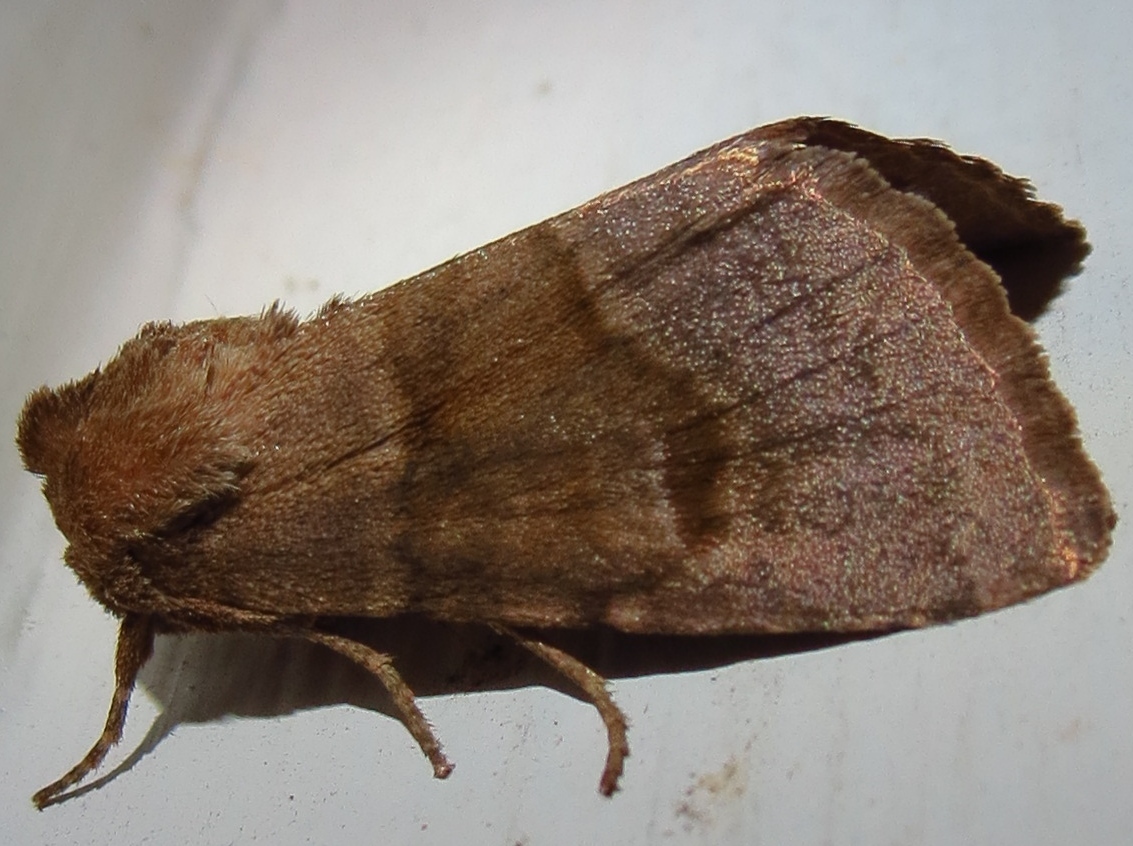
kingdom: Animalia
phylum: Arthropoda
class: Insecta
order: Lepidoptera
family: Noctuidae
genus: Nephelodes
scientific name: Nephelodes minians
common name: Bronzed cutworm
